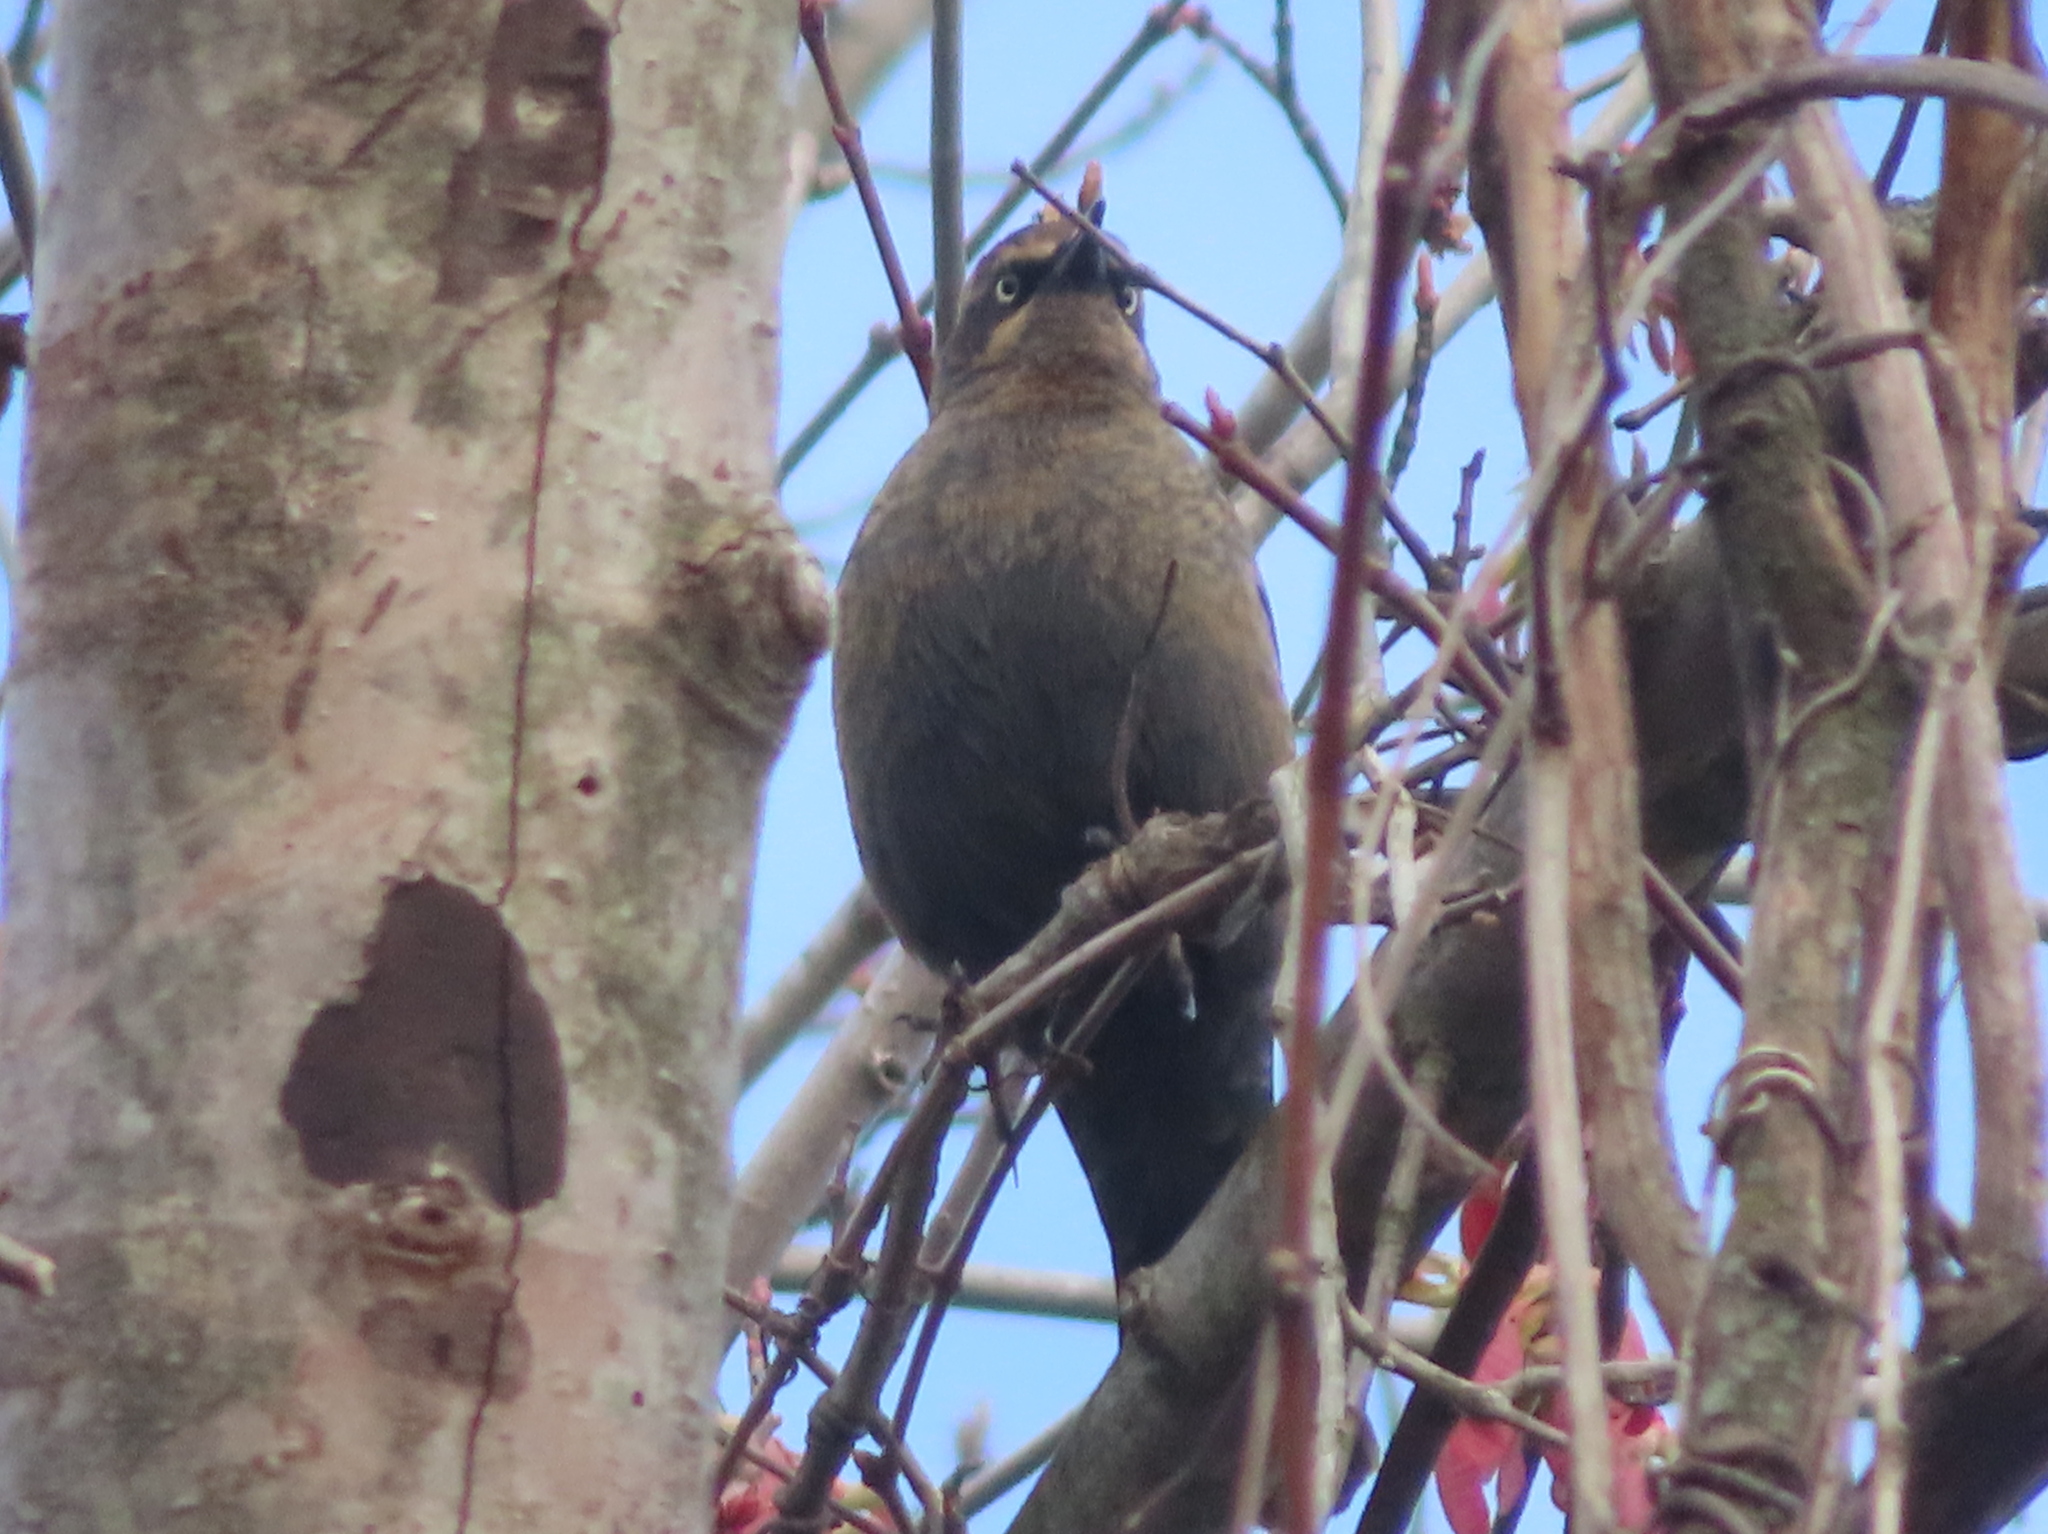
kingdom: Animalia
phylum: Chordata
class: Aves
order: Passeriformes
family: Icteridae
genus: Euphagus
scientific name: Euphagus carolinus
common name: Rusty blackbird
